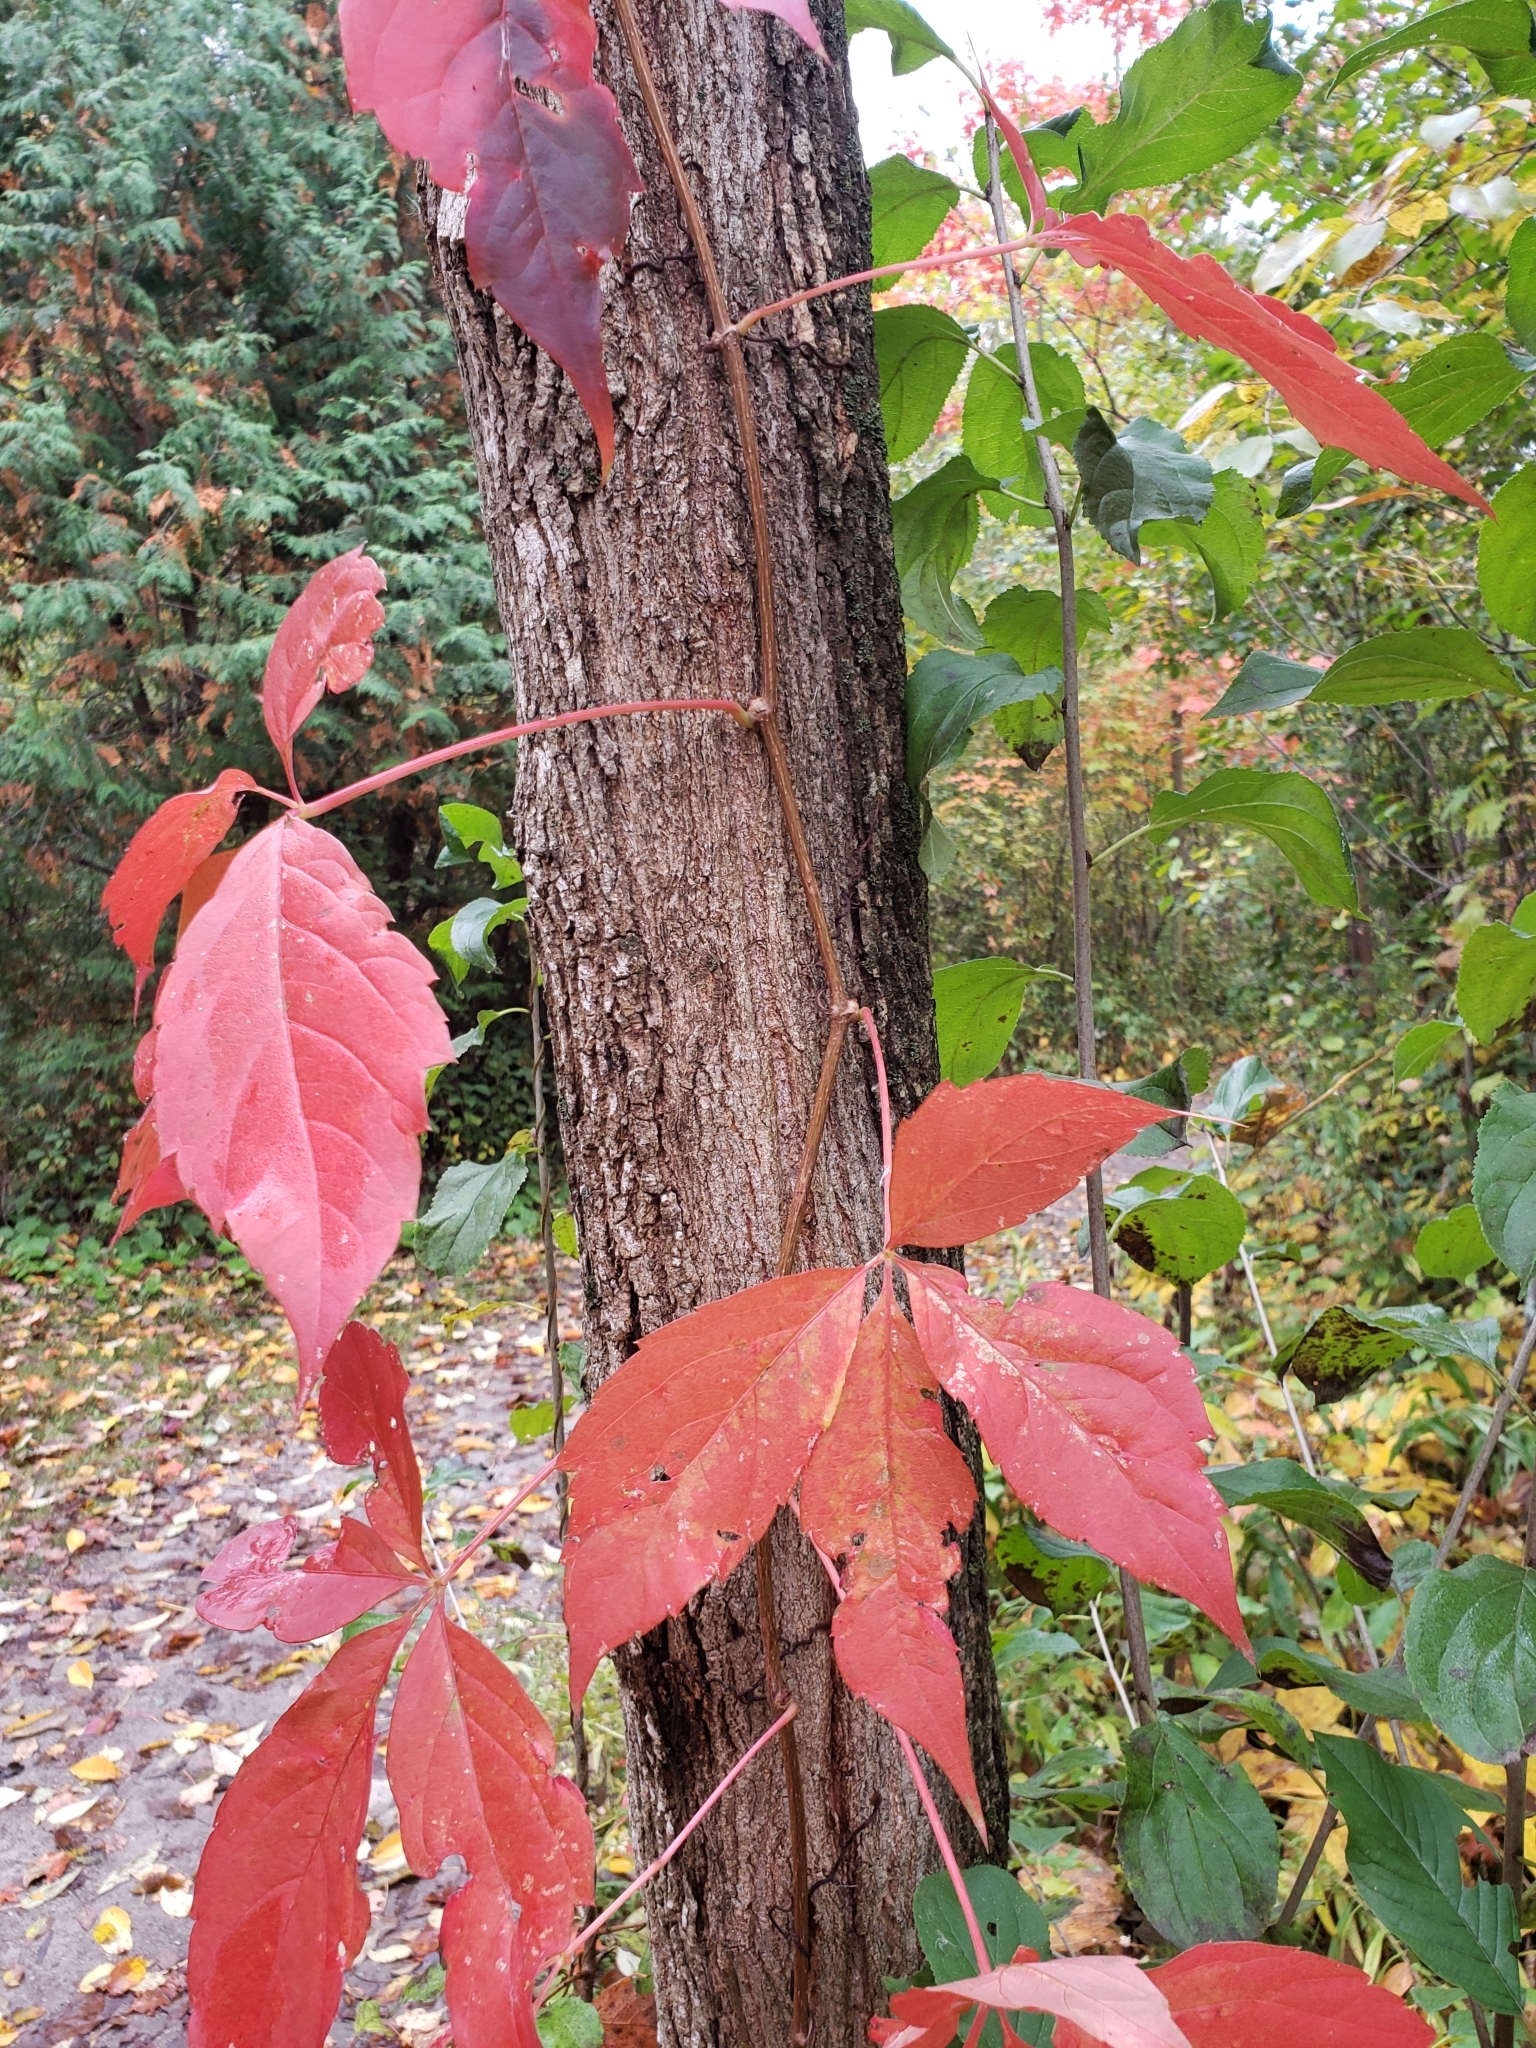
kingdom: Plantae
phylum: Tracheophyta
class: Magnoliopsida
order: Vitales
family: Vitaceae
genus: Parthenocissus
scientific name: Parthenocissus quinquefolia
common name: Virginia-creeper
